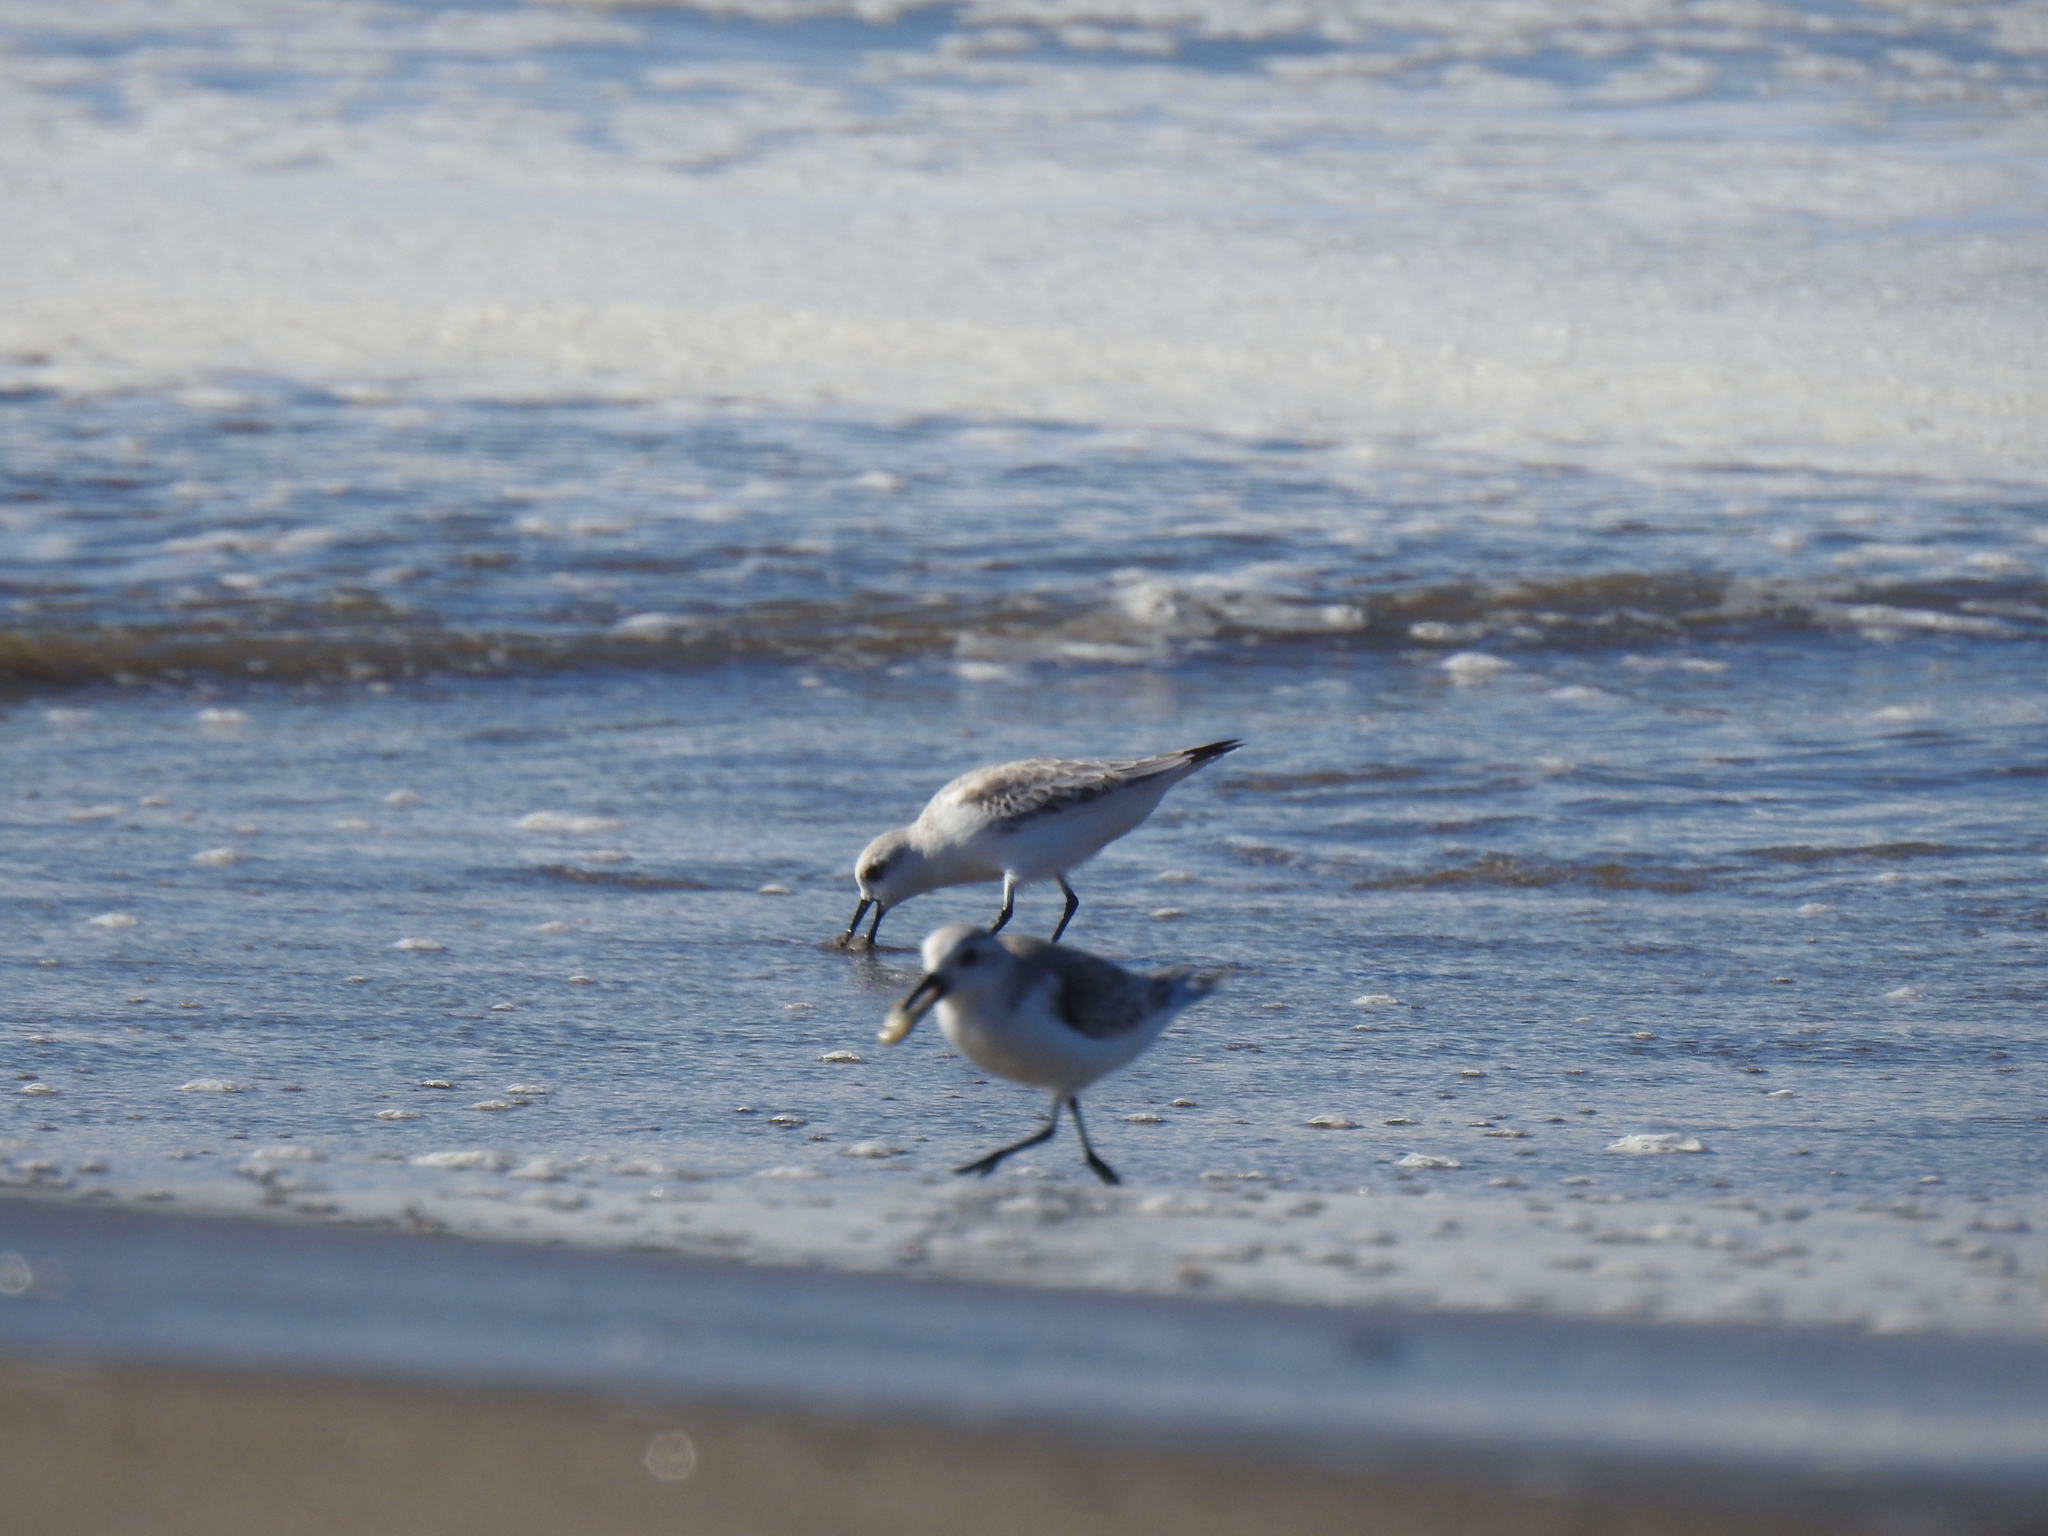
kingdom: Animalia
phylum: Chordata
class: Aves
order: Charadriiformes
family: Scolopacidae
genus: Calidris
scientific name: Calidris alba
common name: Sanderling
